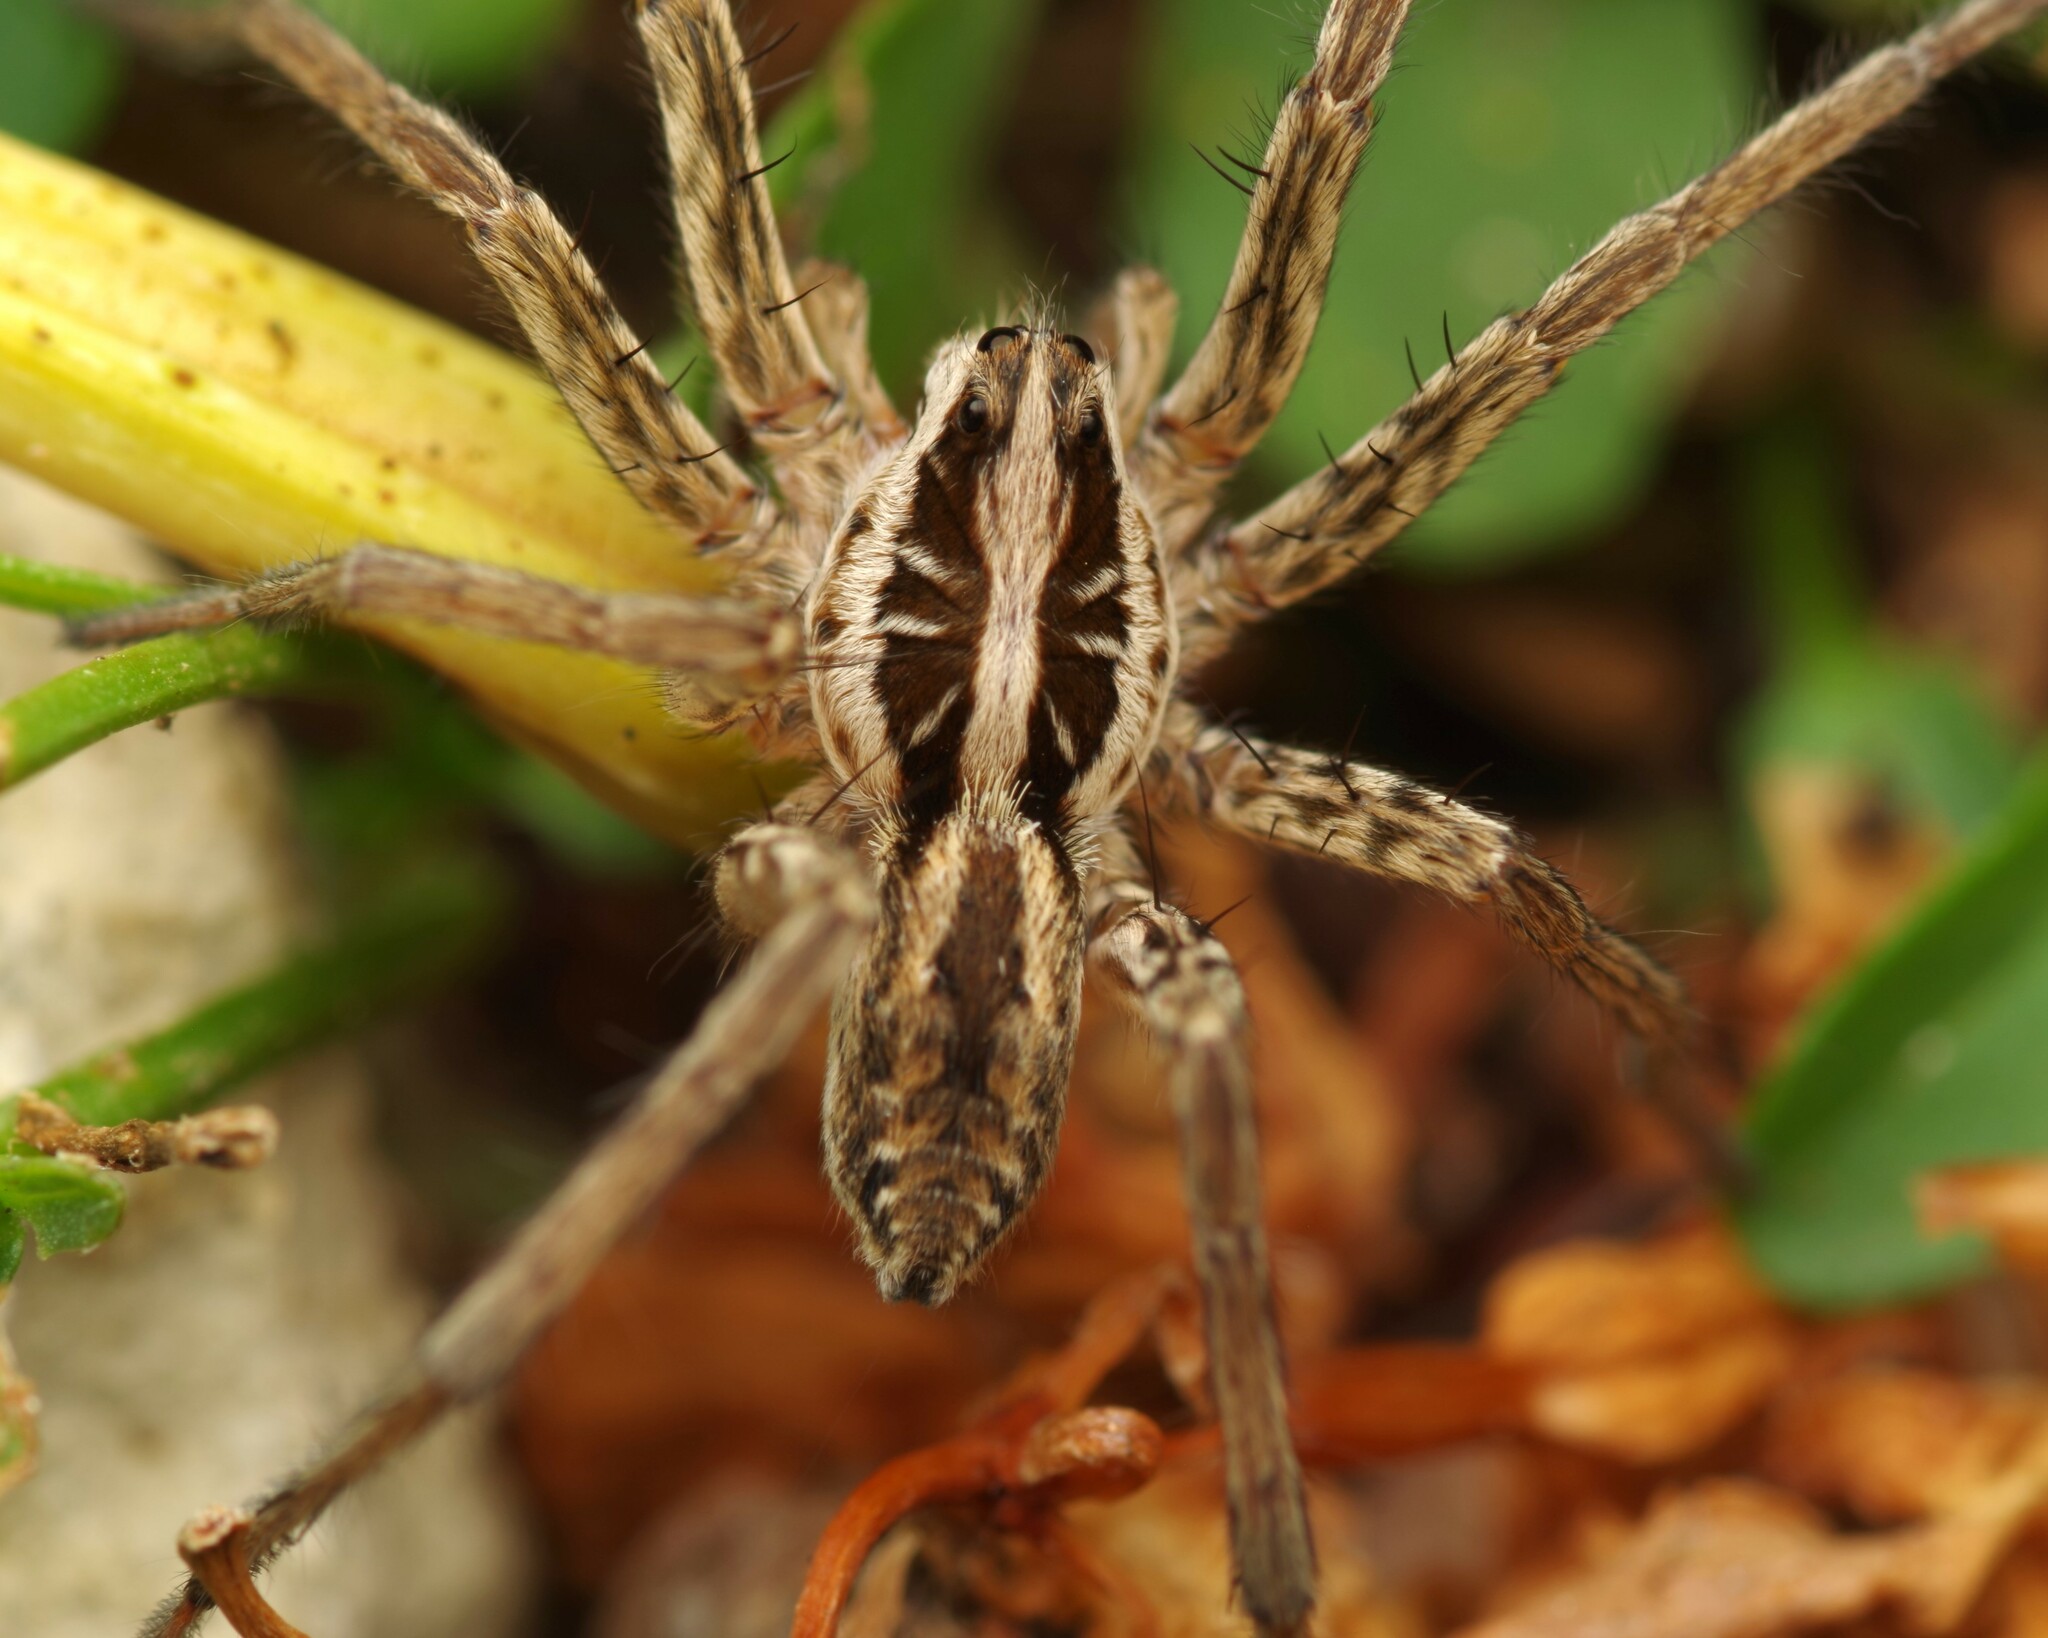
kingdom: Animalia
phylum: Arthropoda
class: Arachnida
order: Araneae
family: Lycosidae
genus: Hogna
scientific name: Hogna radiata
